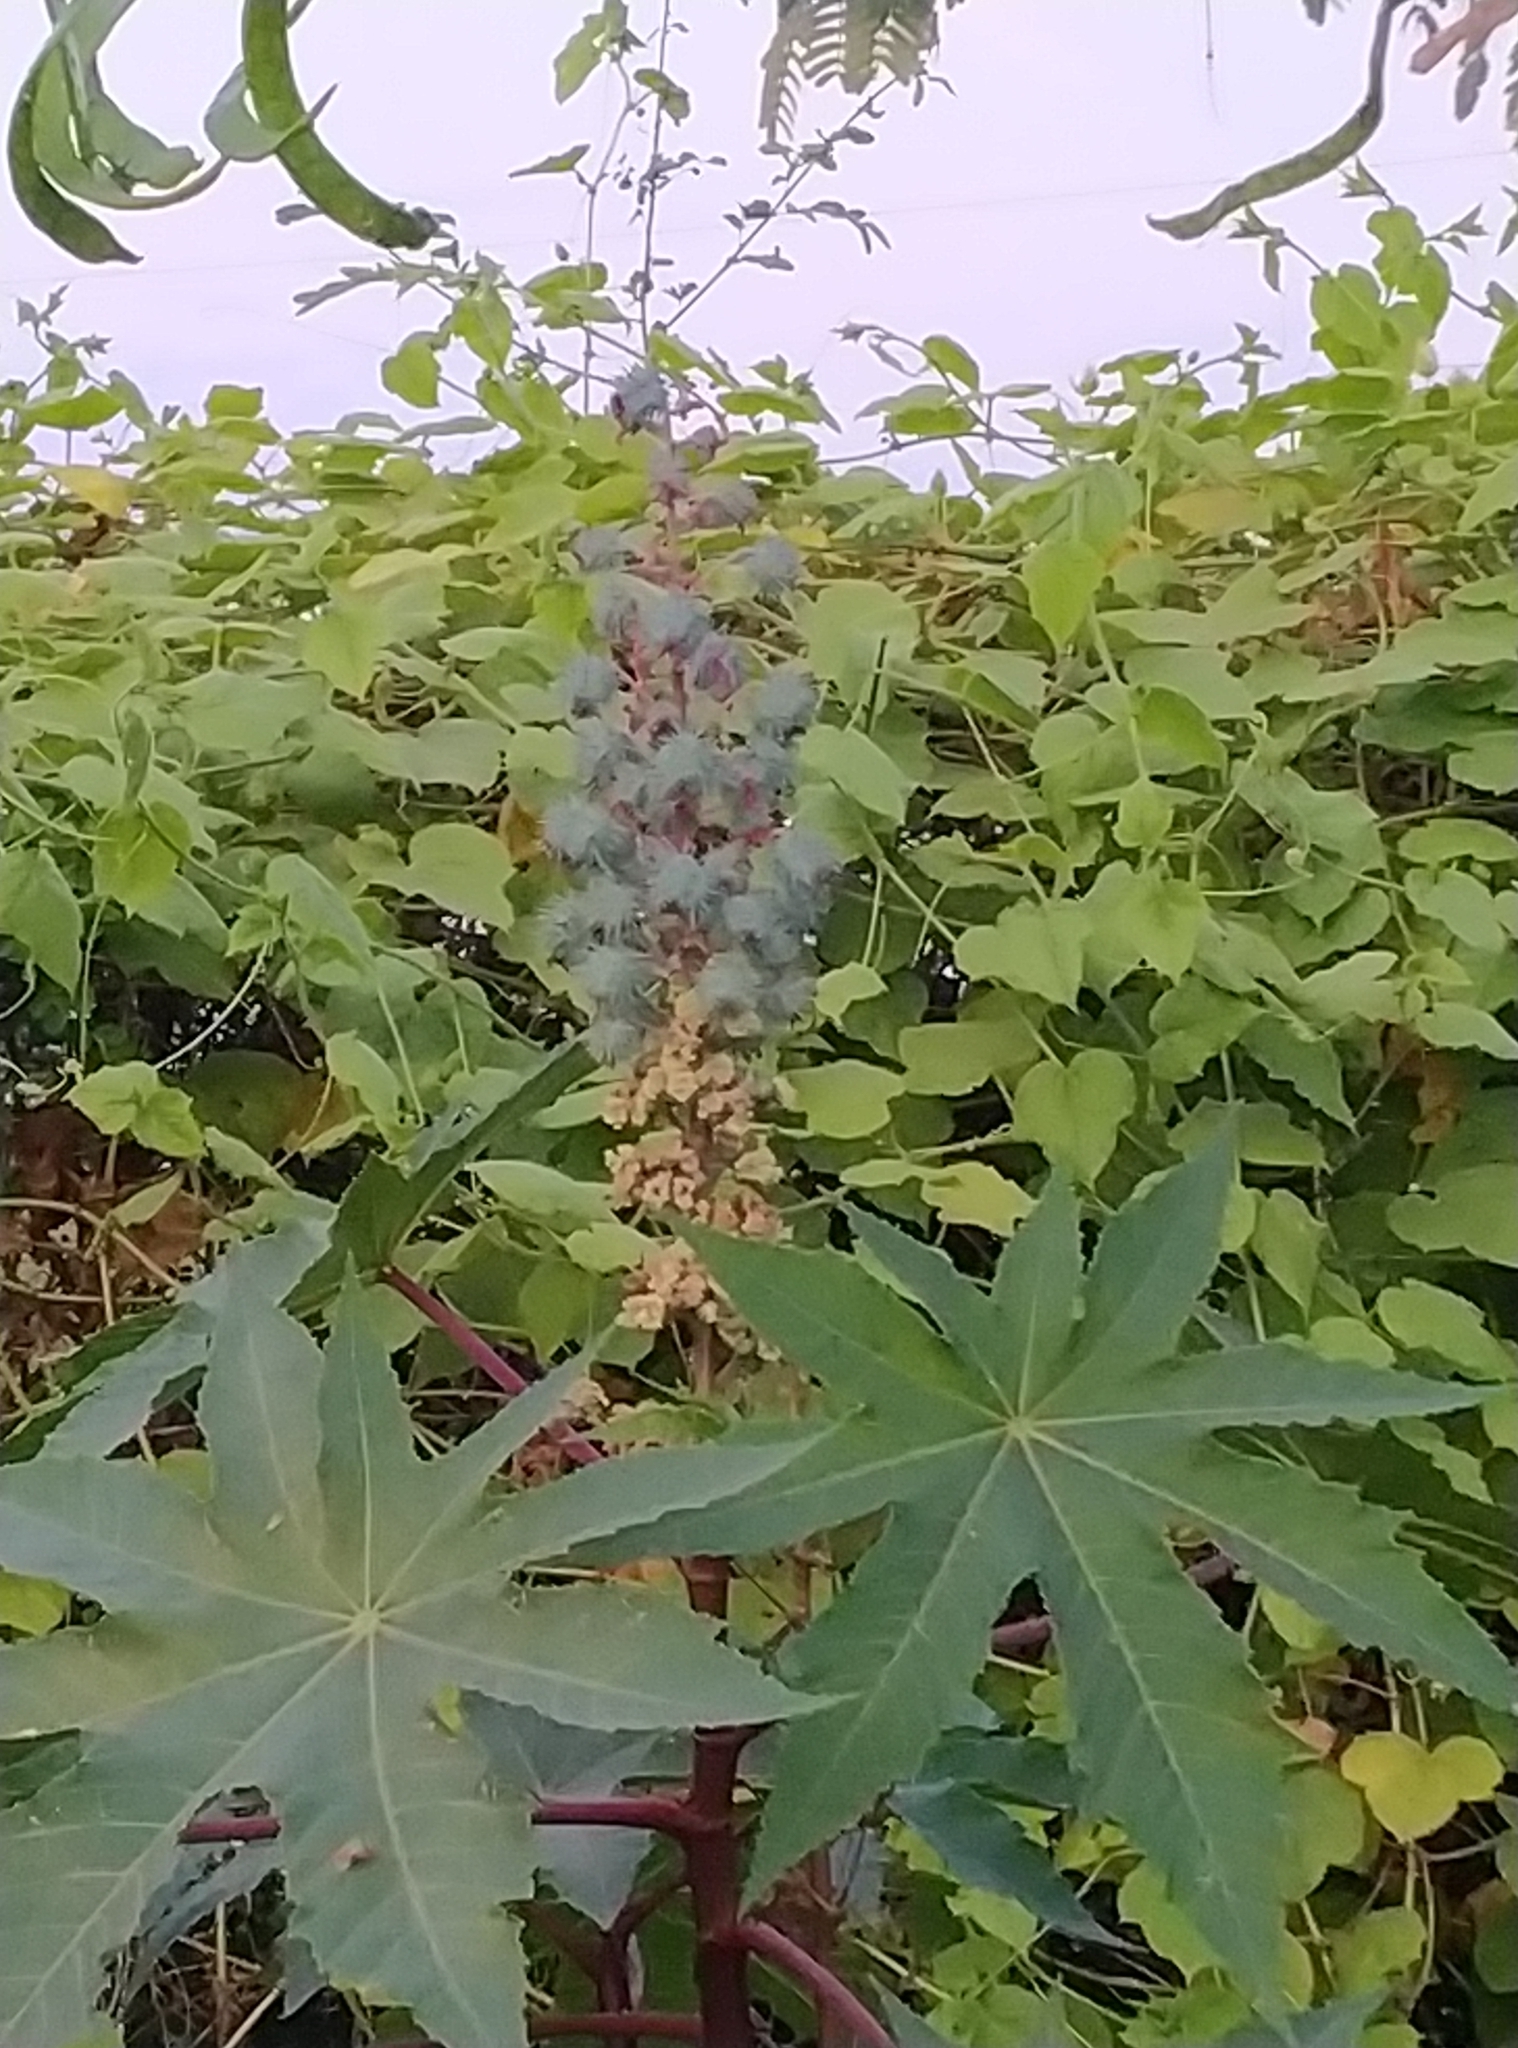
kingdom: Plantae
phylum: Tracheophyta
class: Magnoliopsida
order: Malpighiales
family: Euphorbiaceae
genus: Ricinus
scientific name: Ricinus communis
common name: Castor-oil-plant
